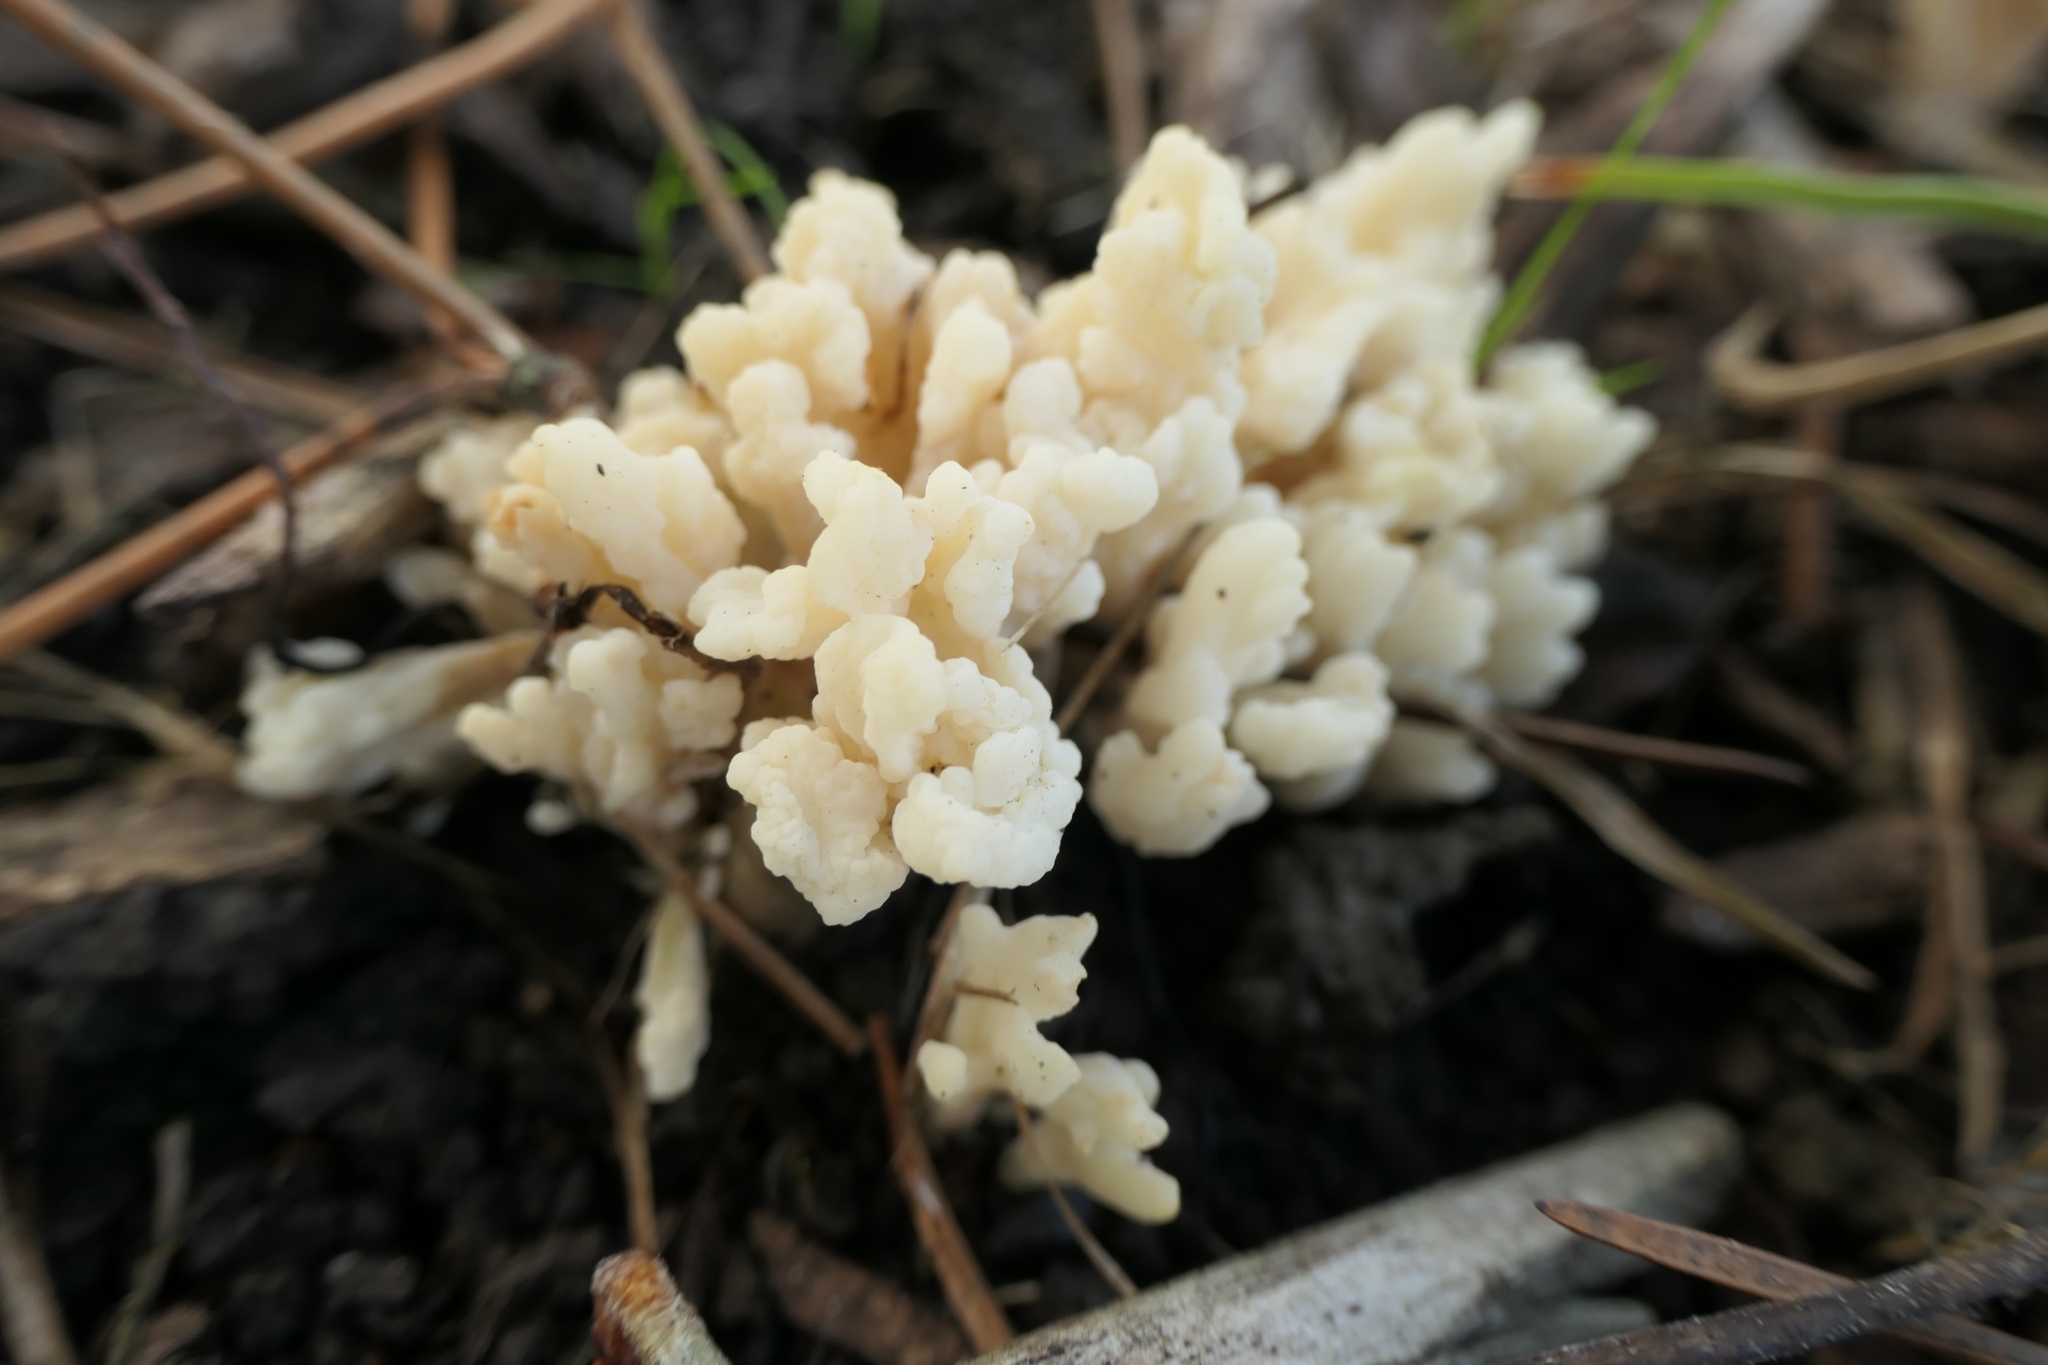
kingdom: Fungi
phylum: Basidiomycota
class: Agaricomycetes
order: Cantharellales
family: Hydnaceae
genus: Clavulina
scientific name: Clavulina rugosa
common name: Wrinkled club
